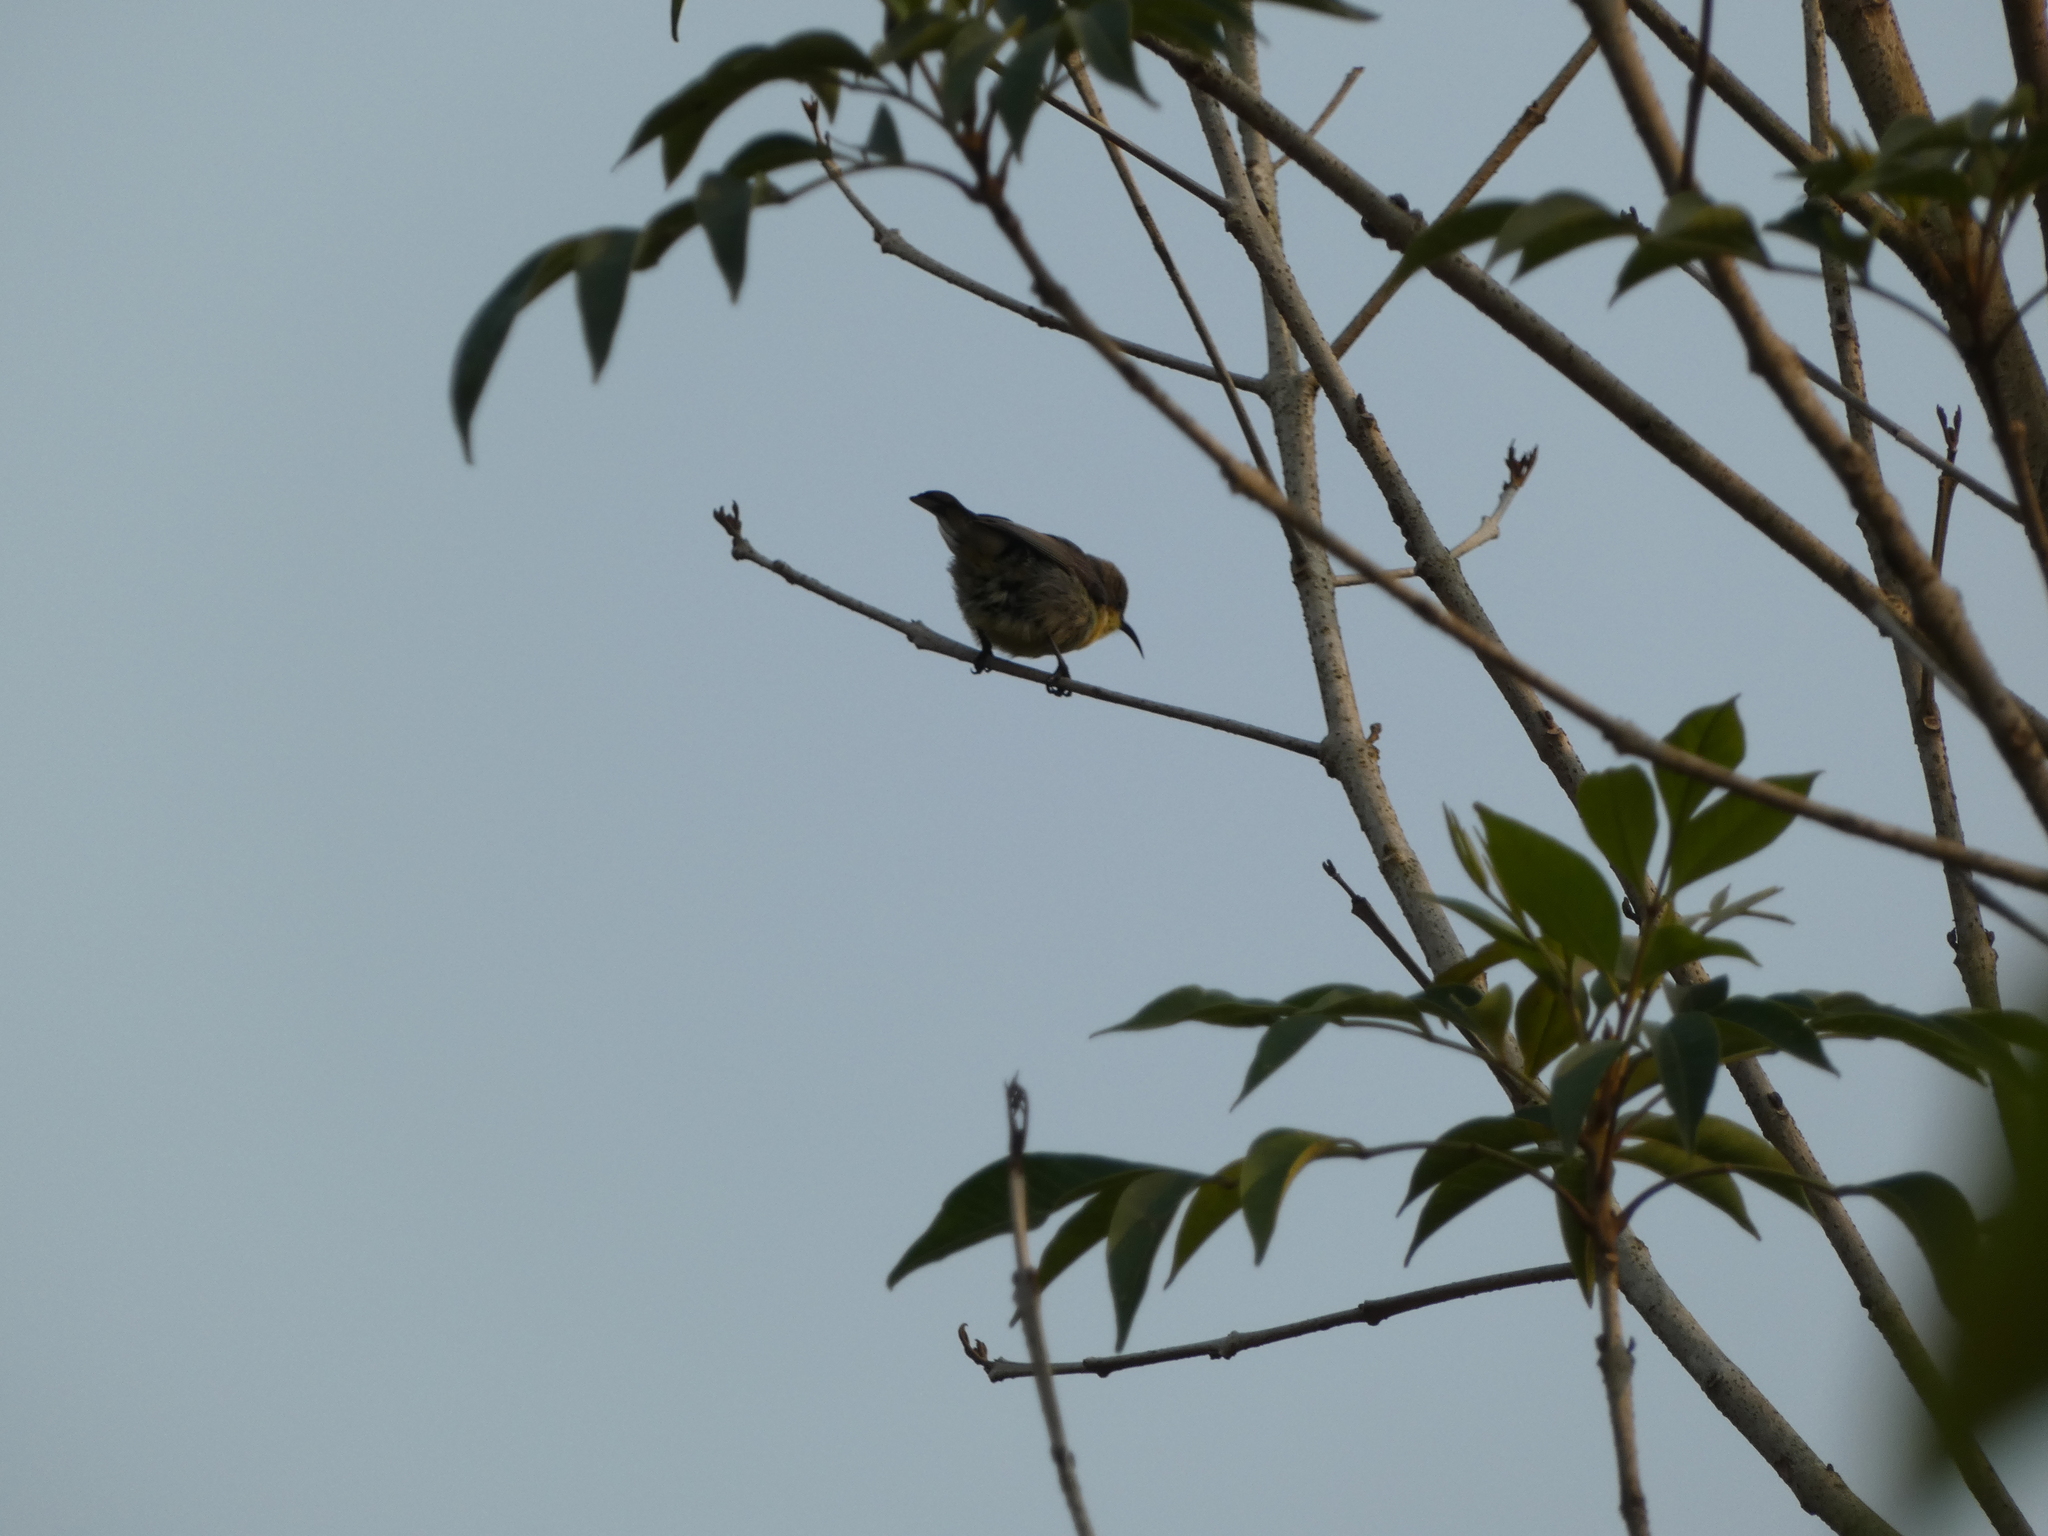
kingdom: Animalia
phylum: Chordata
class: Aves
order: Passeriformes
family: Nectariniidae
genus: Cinnyris
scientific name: Cinnyris
